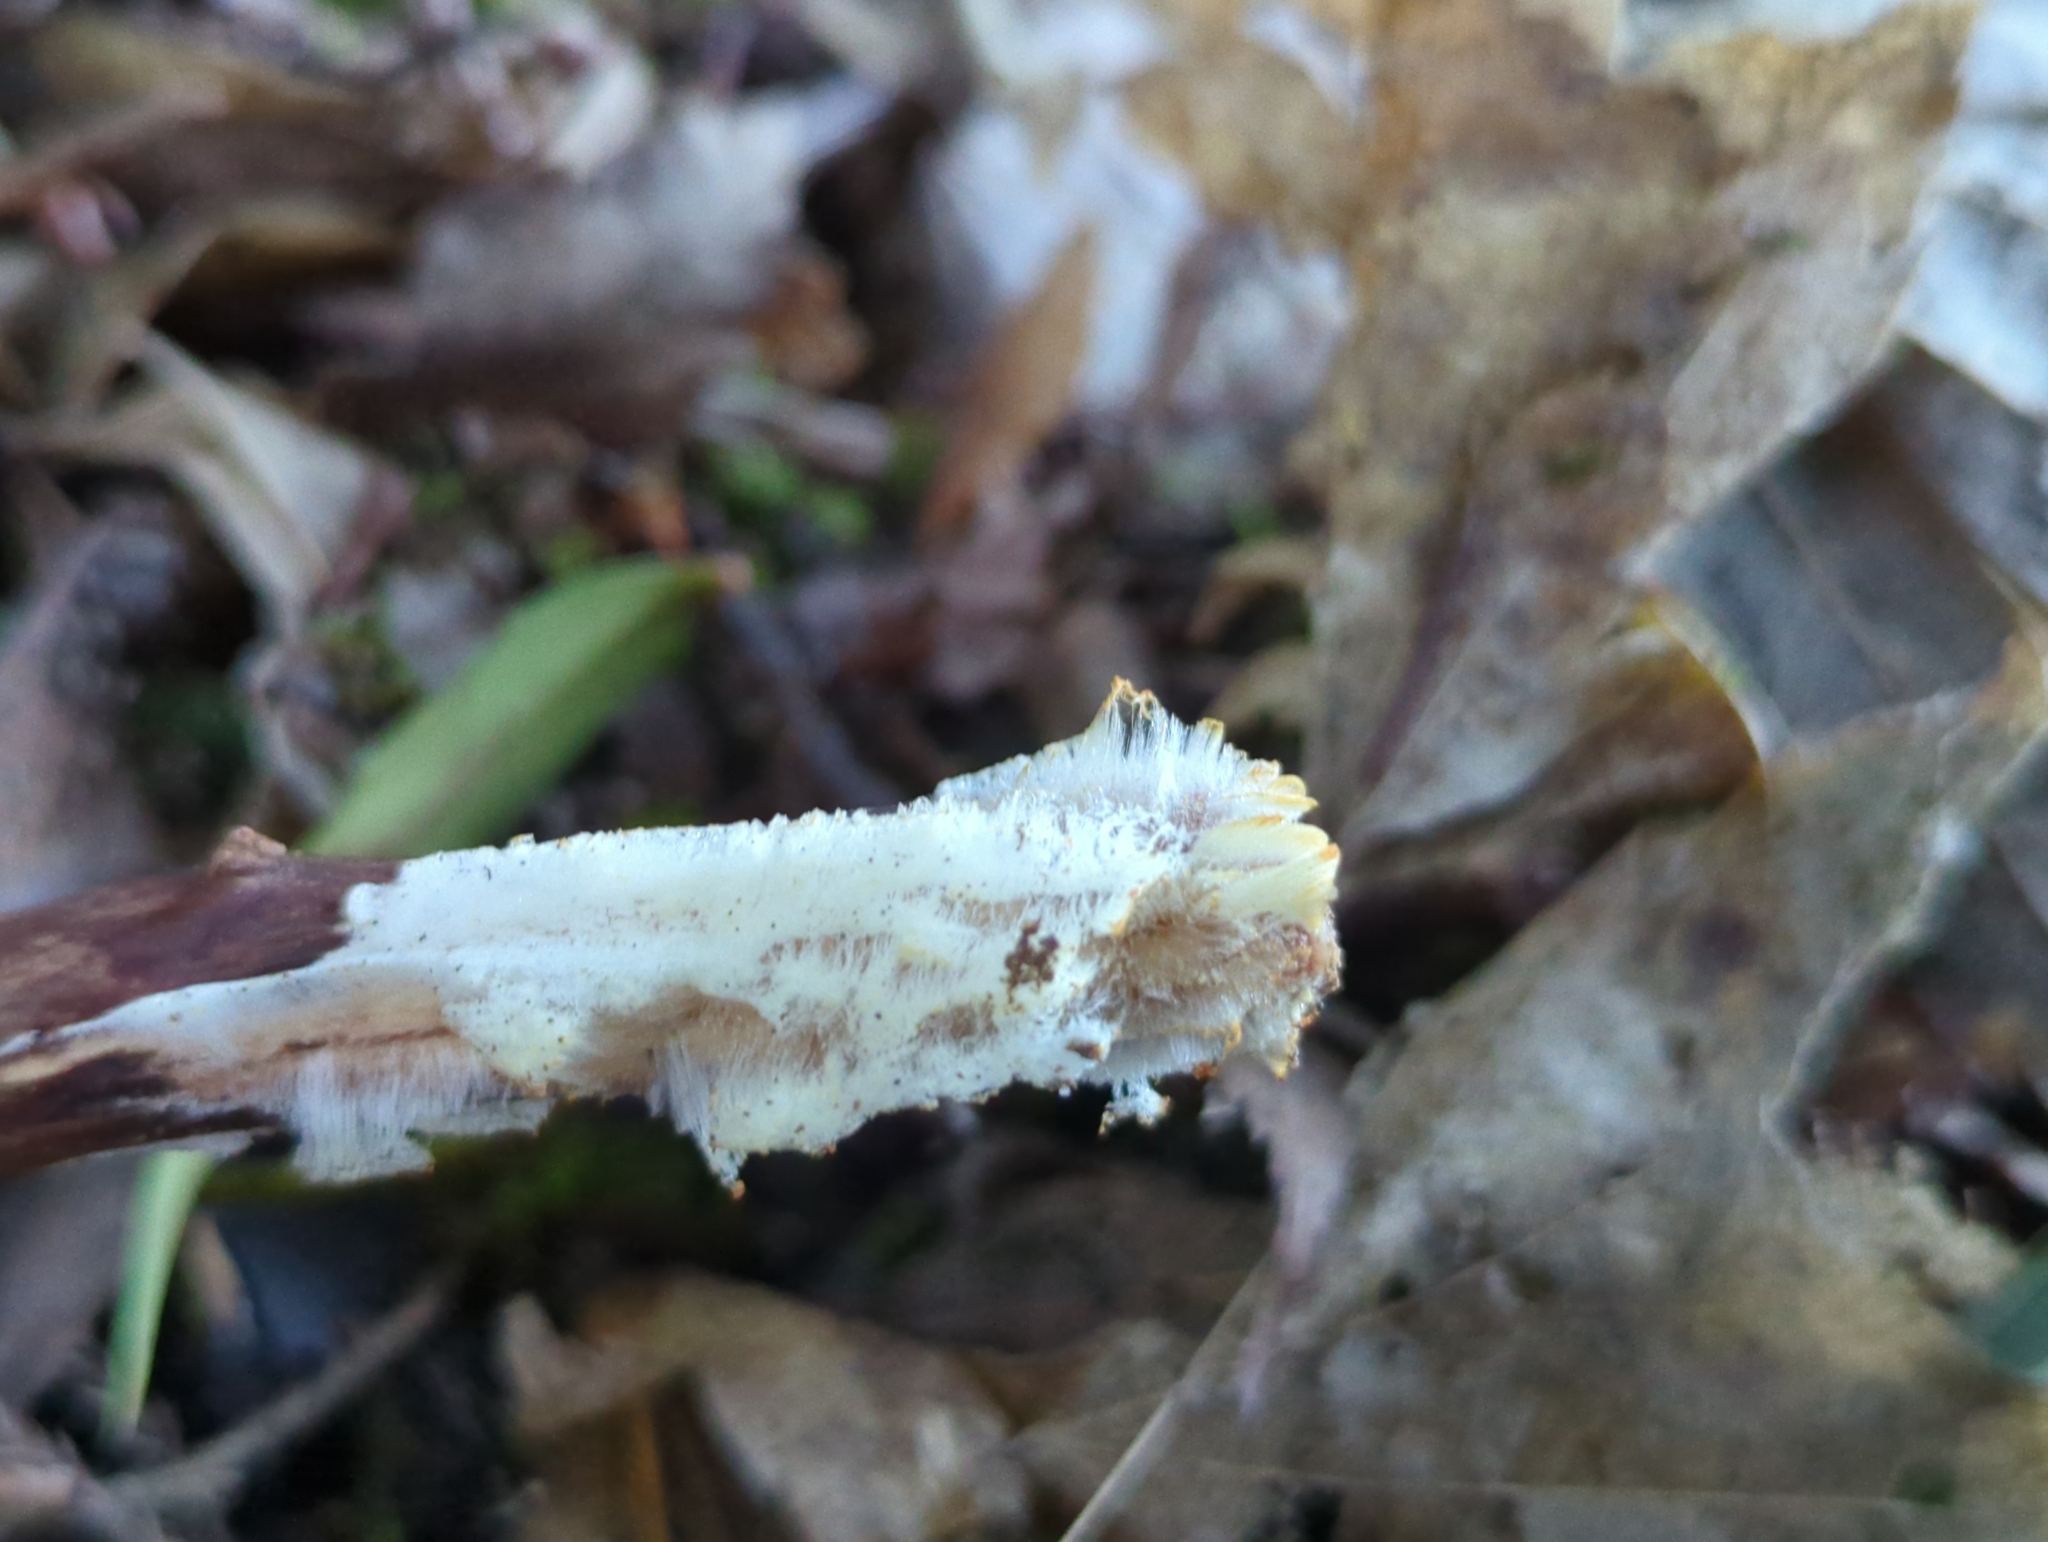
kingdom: Fungi
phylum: Basidiomycota
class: Agaricomycetes
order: Auriculariales
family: Auriculariaceae
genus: Exidiopsis
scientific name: Exidiopsis effusa
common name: Hair ice crust
